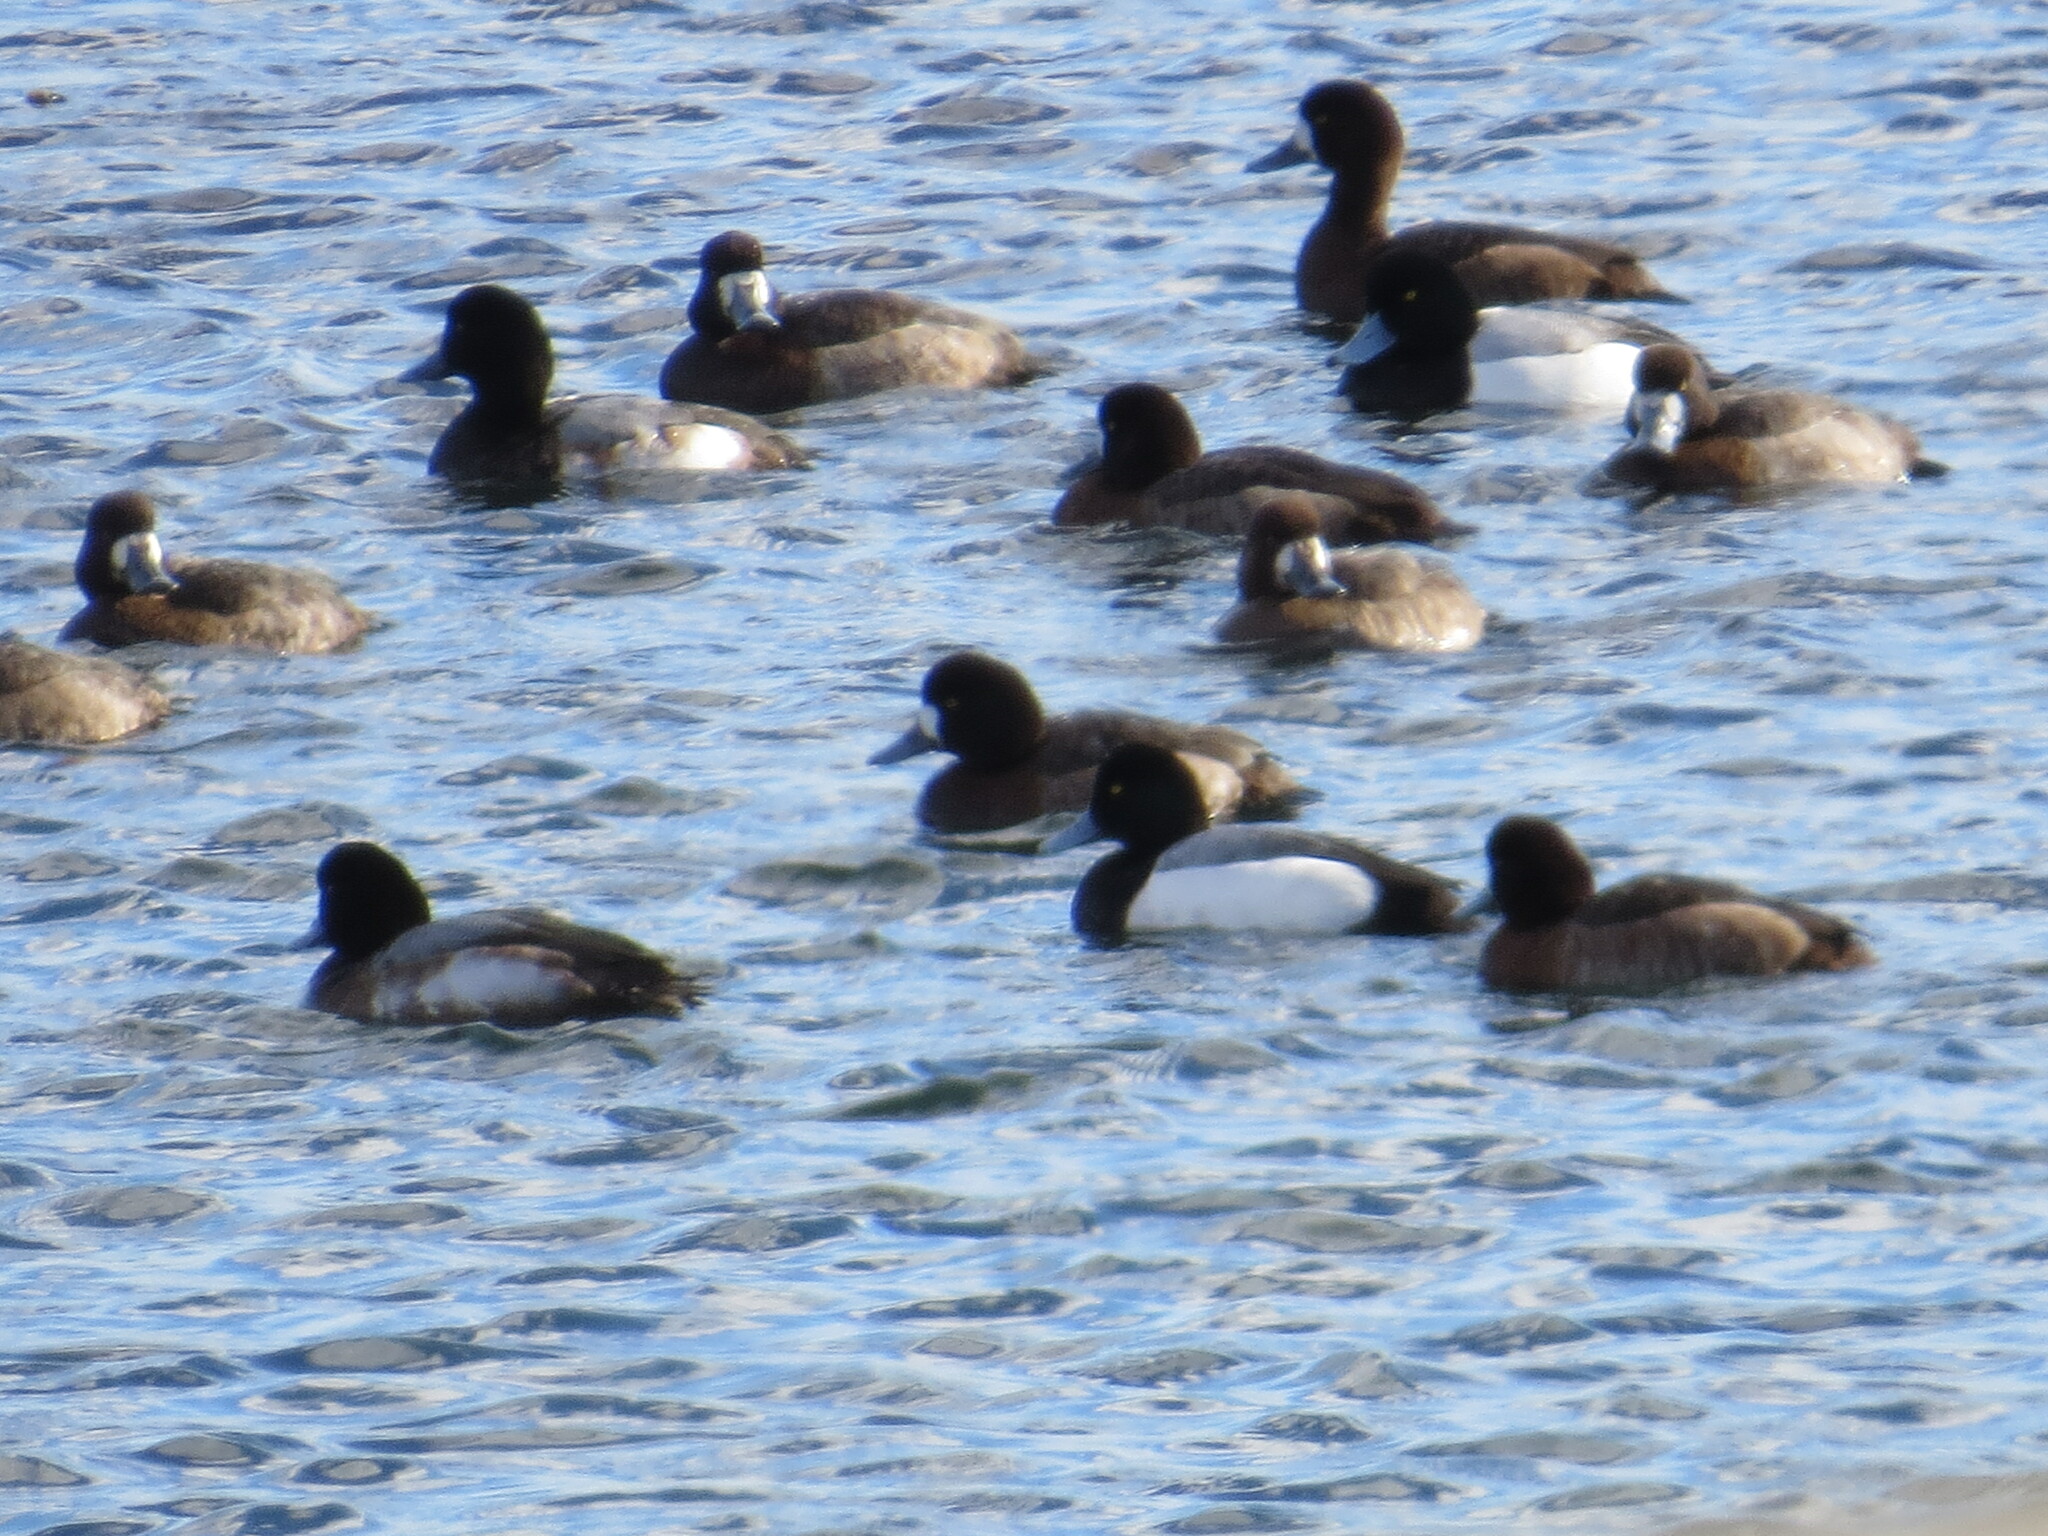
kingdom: Animalia
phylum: Chordata
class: Aves
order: Anseriformes
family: Anatidae
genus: Aythya
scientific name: Aythya marila
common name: Greater scaup
